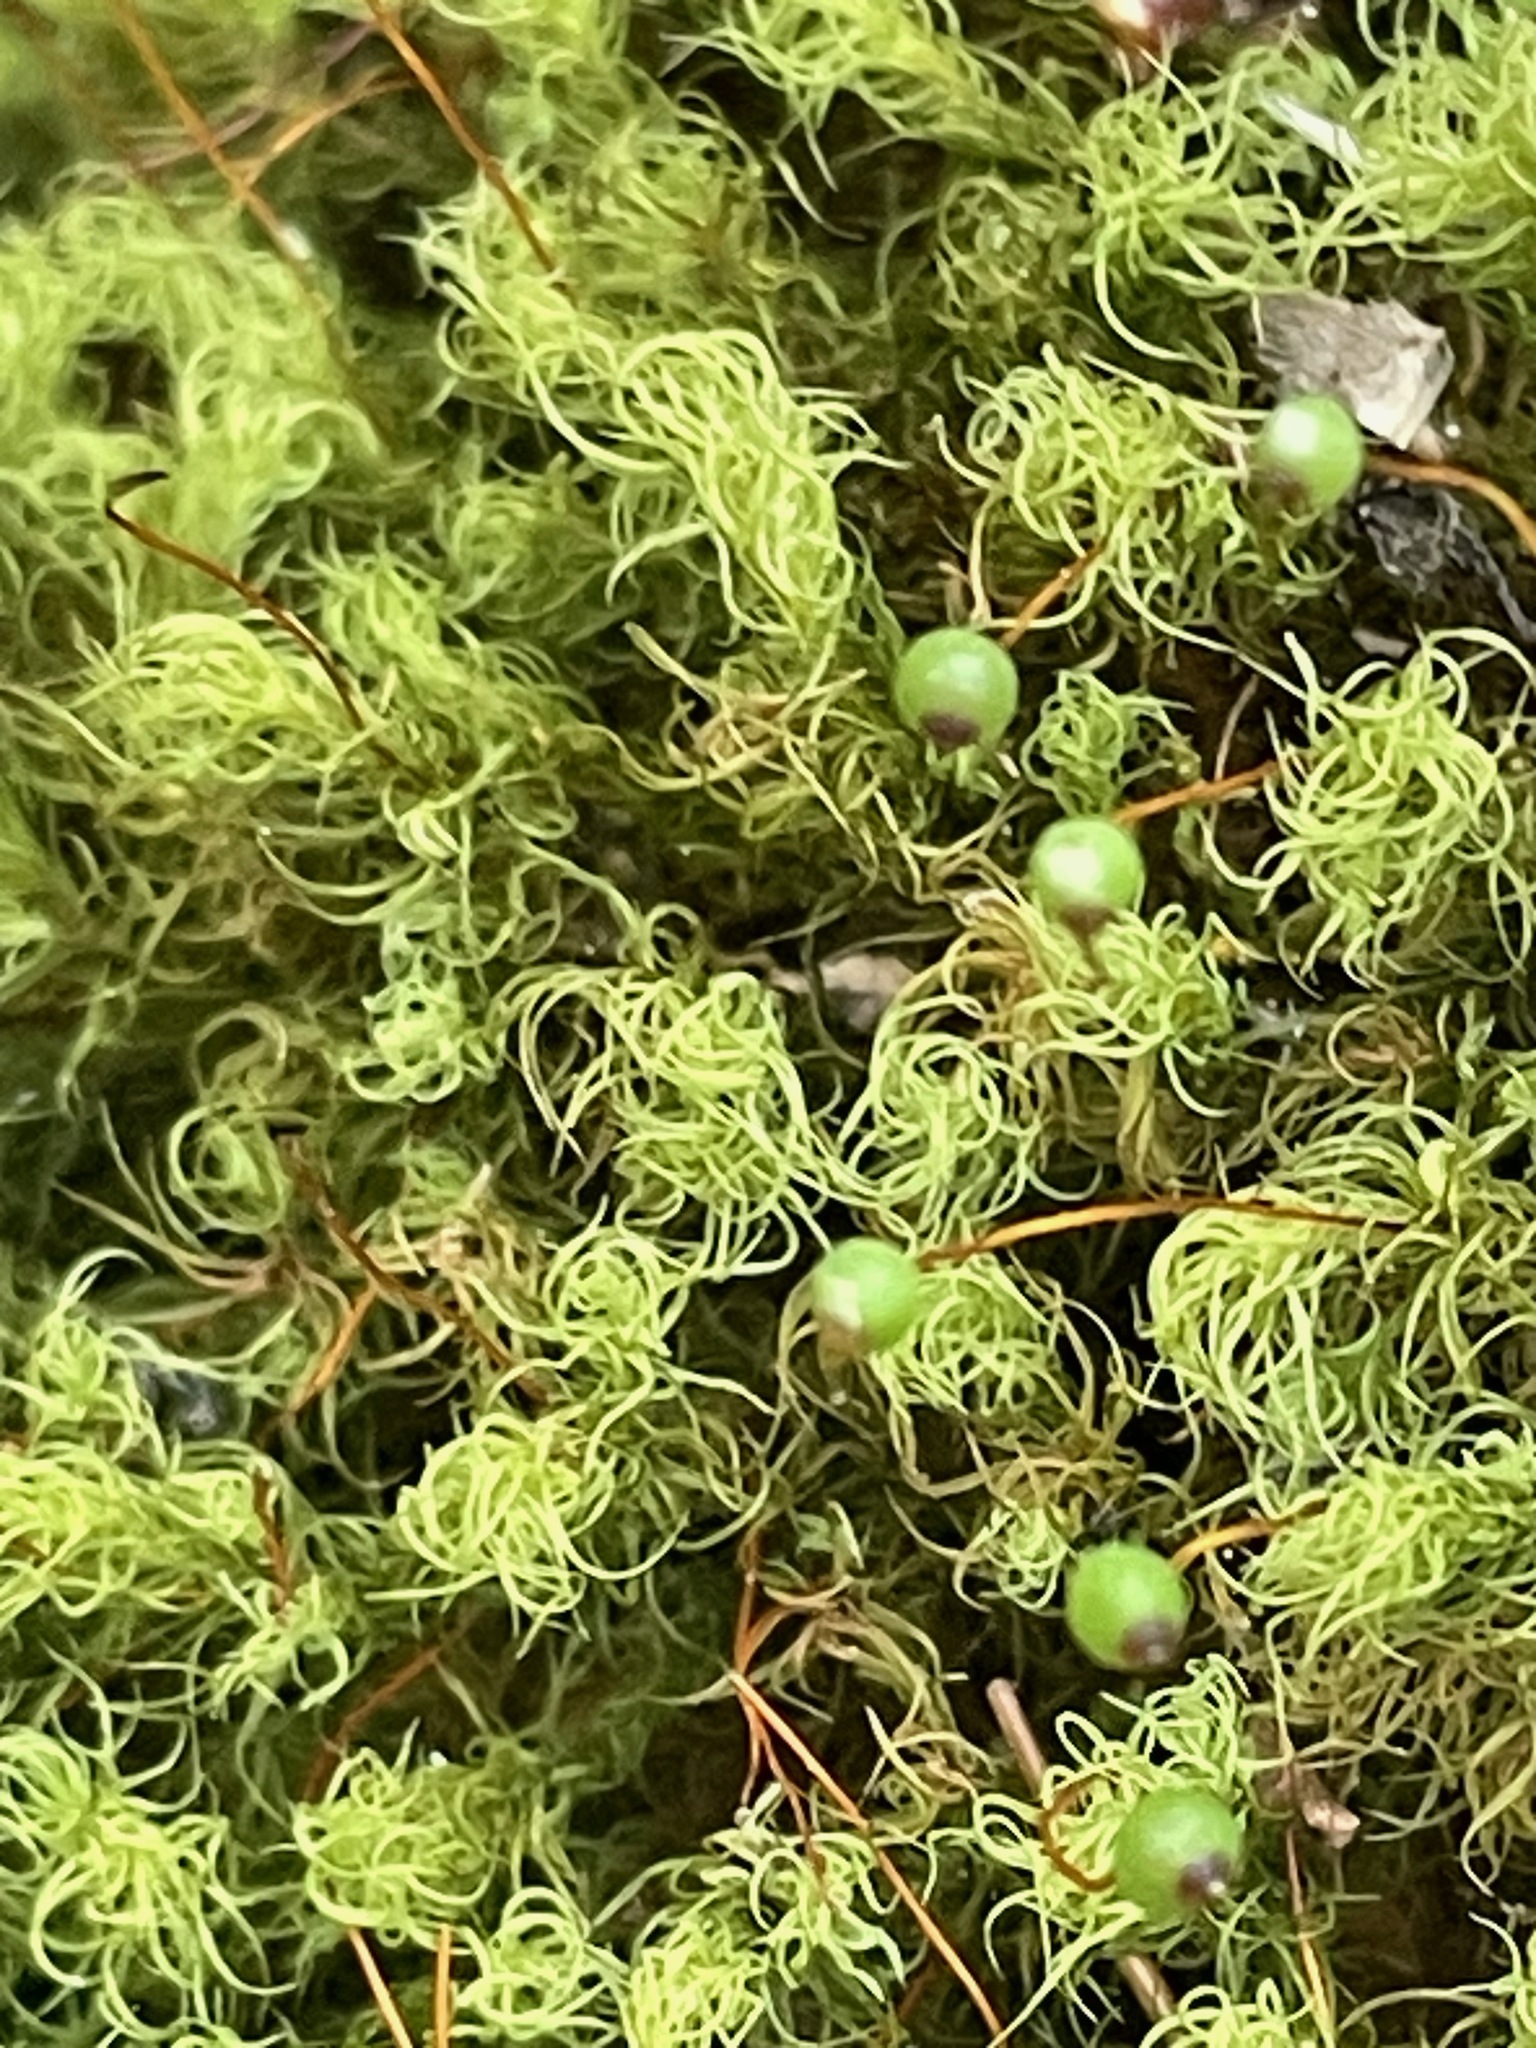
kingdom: Plantae
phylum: Bryophyta
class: Bryopsida
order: Bartramiales
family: Bartramiaceae
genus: Bartramia
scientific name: Bartramia ithyphylla
